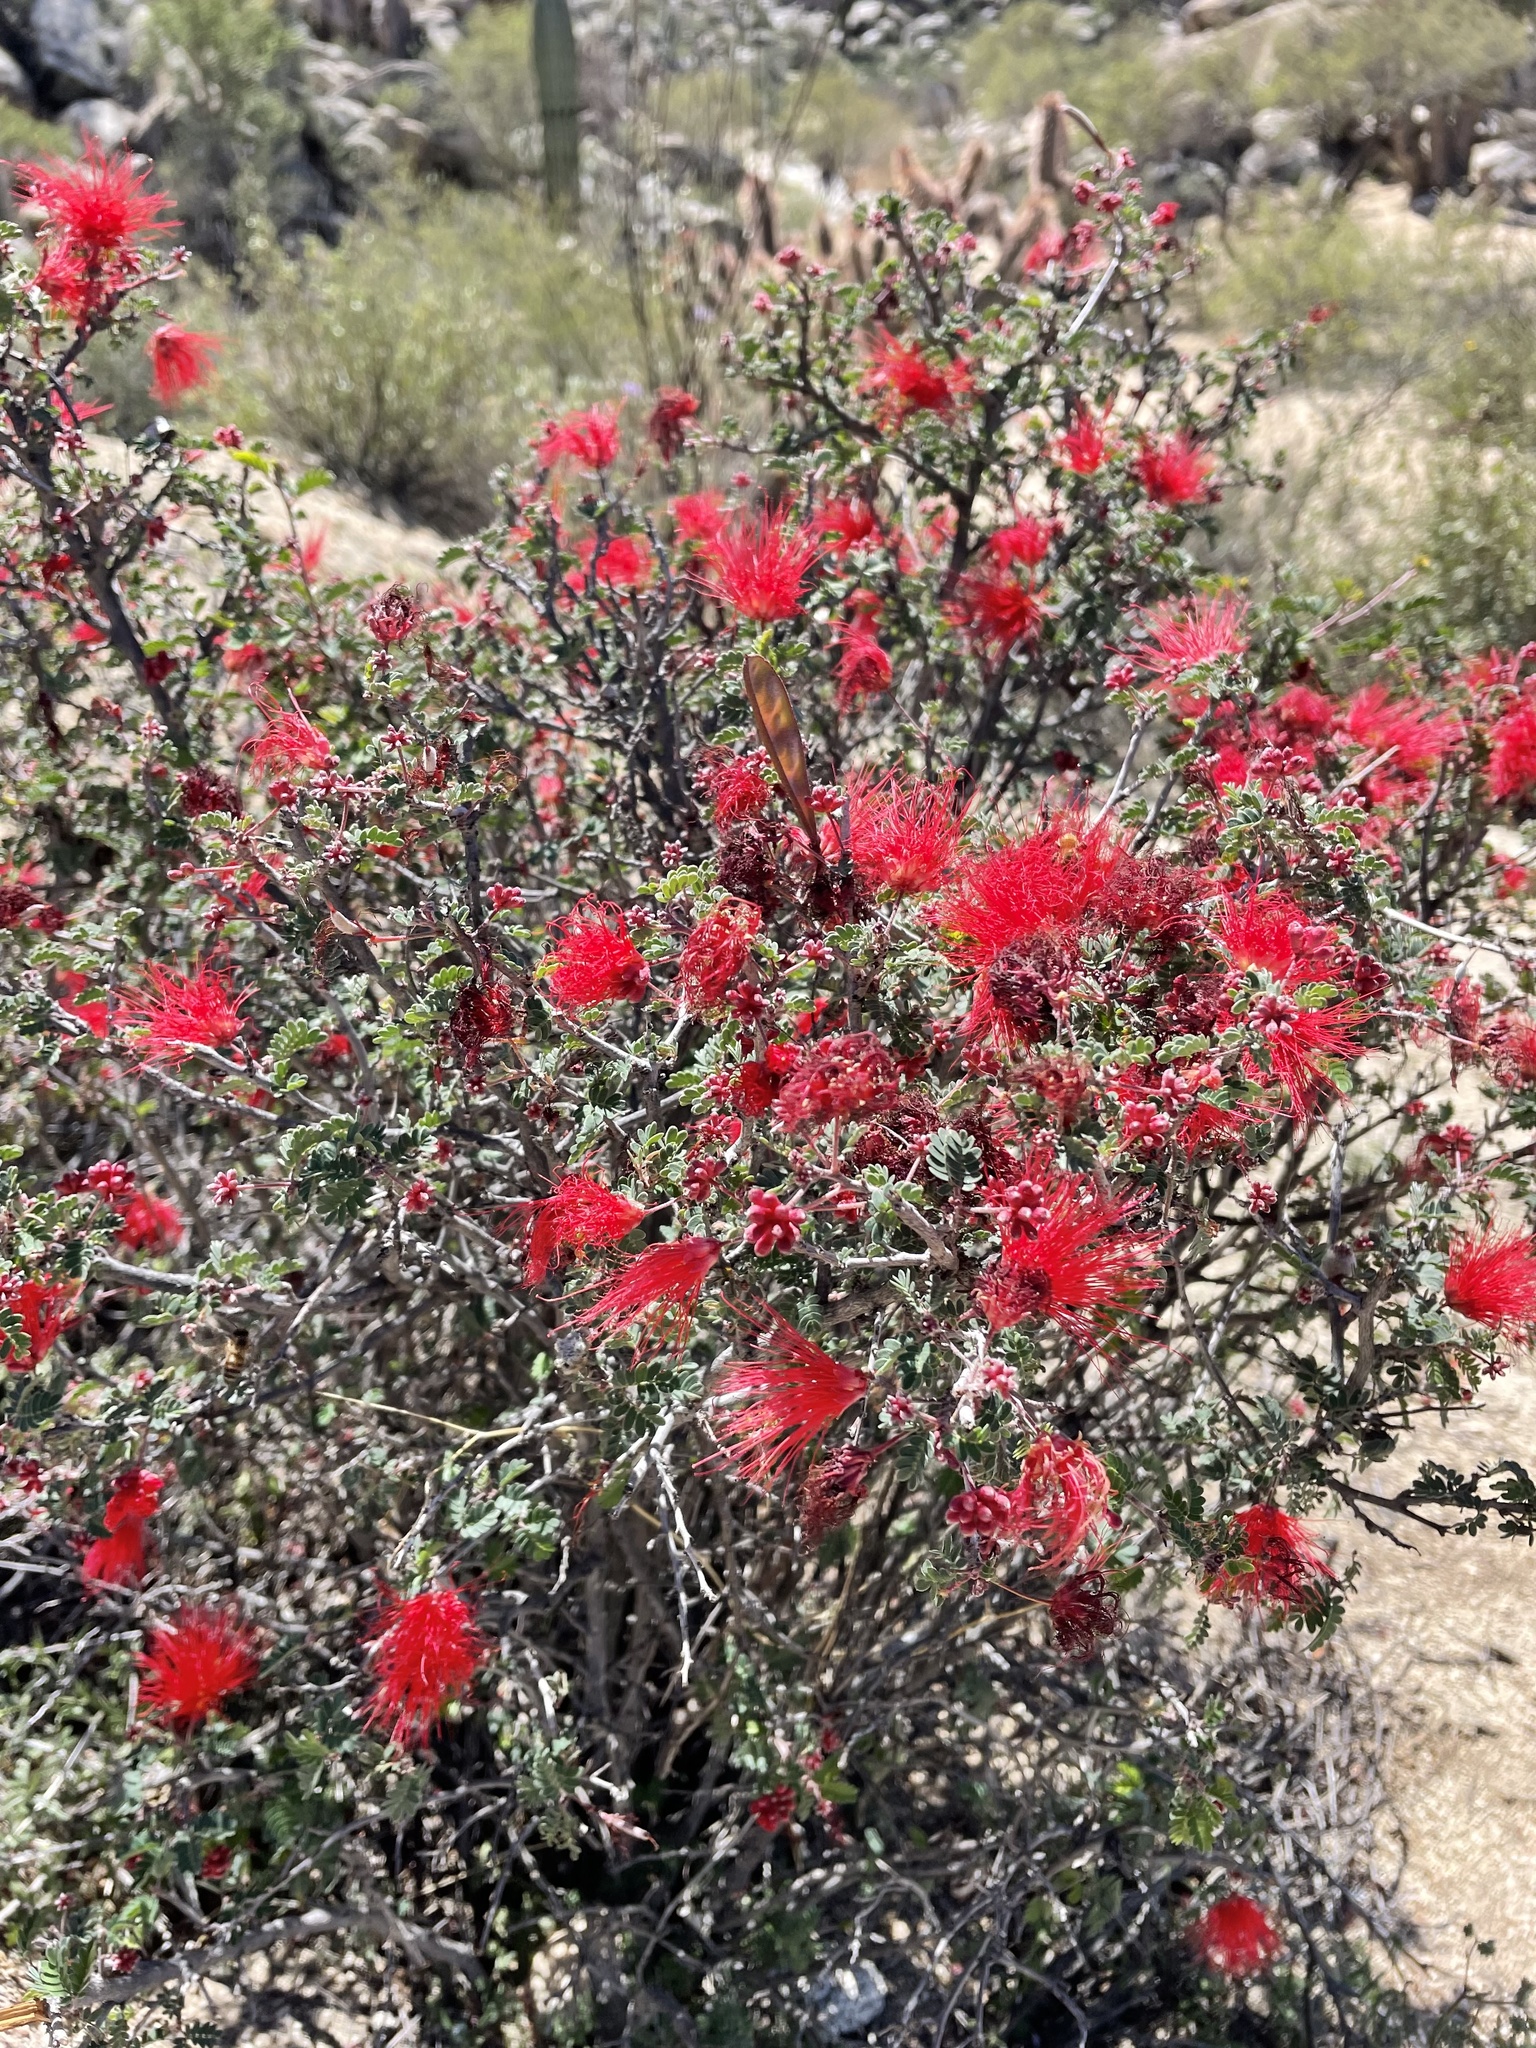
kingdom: Plantae
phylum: Tracheophyta
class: Magnoliopsida
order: Fabales
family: Fabaceae
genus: Calliandra
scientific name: Calliandra californica
